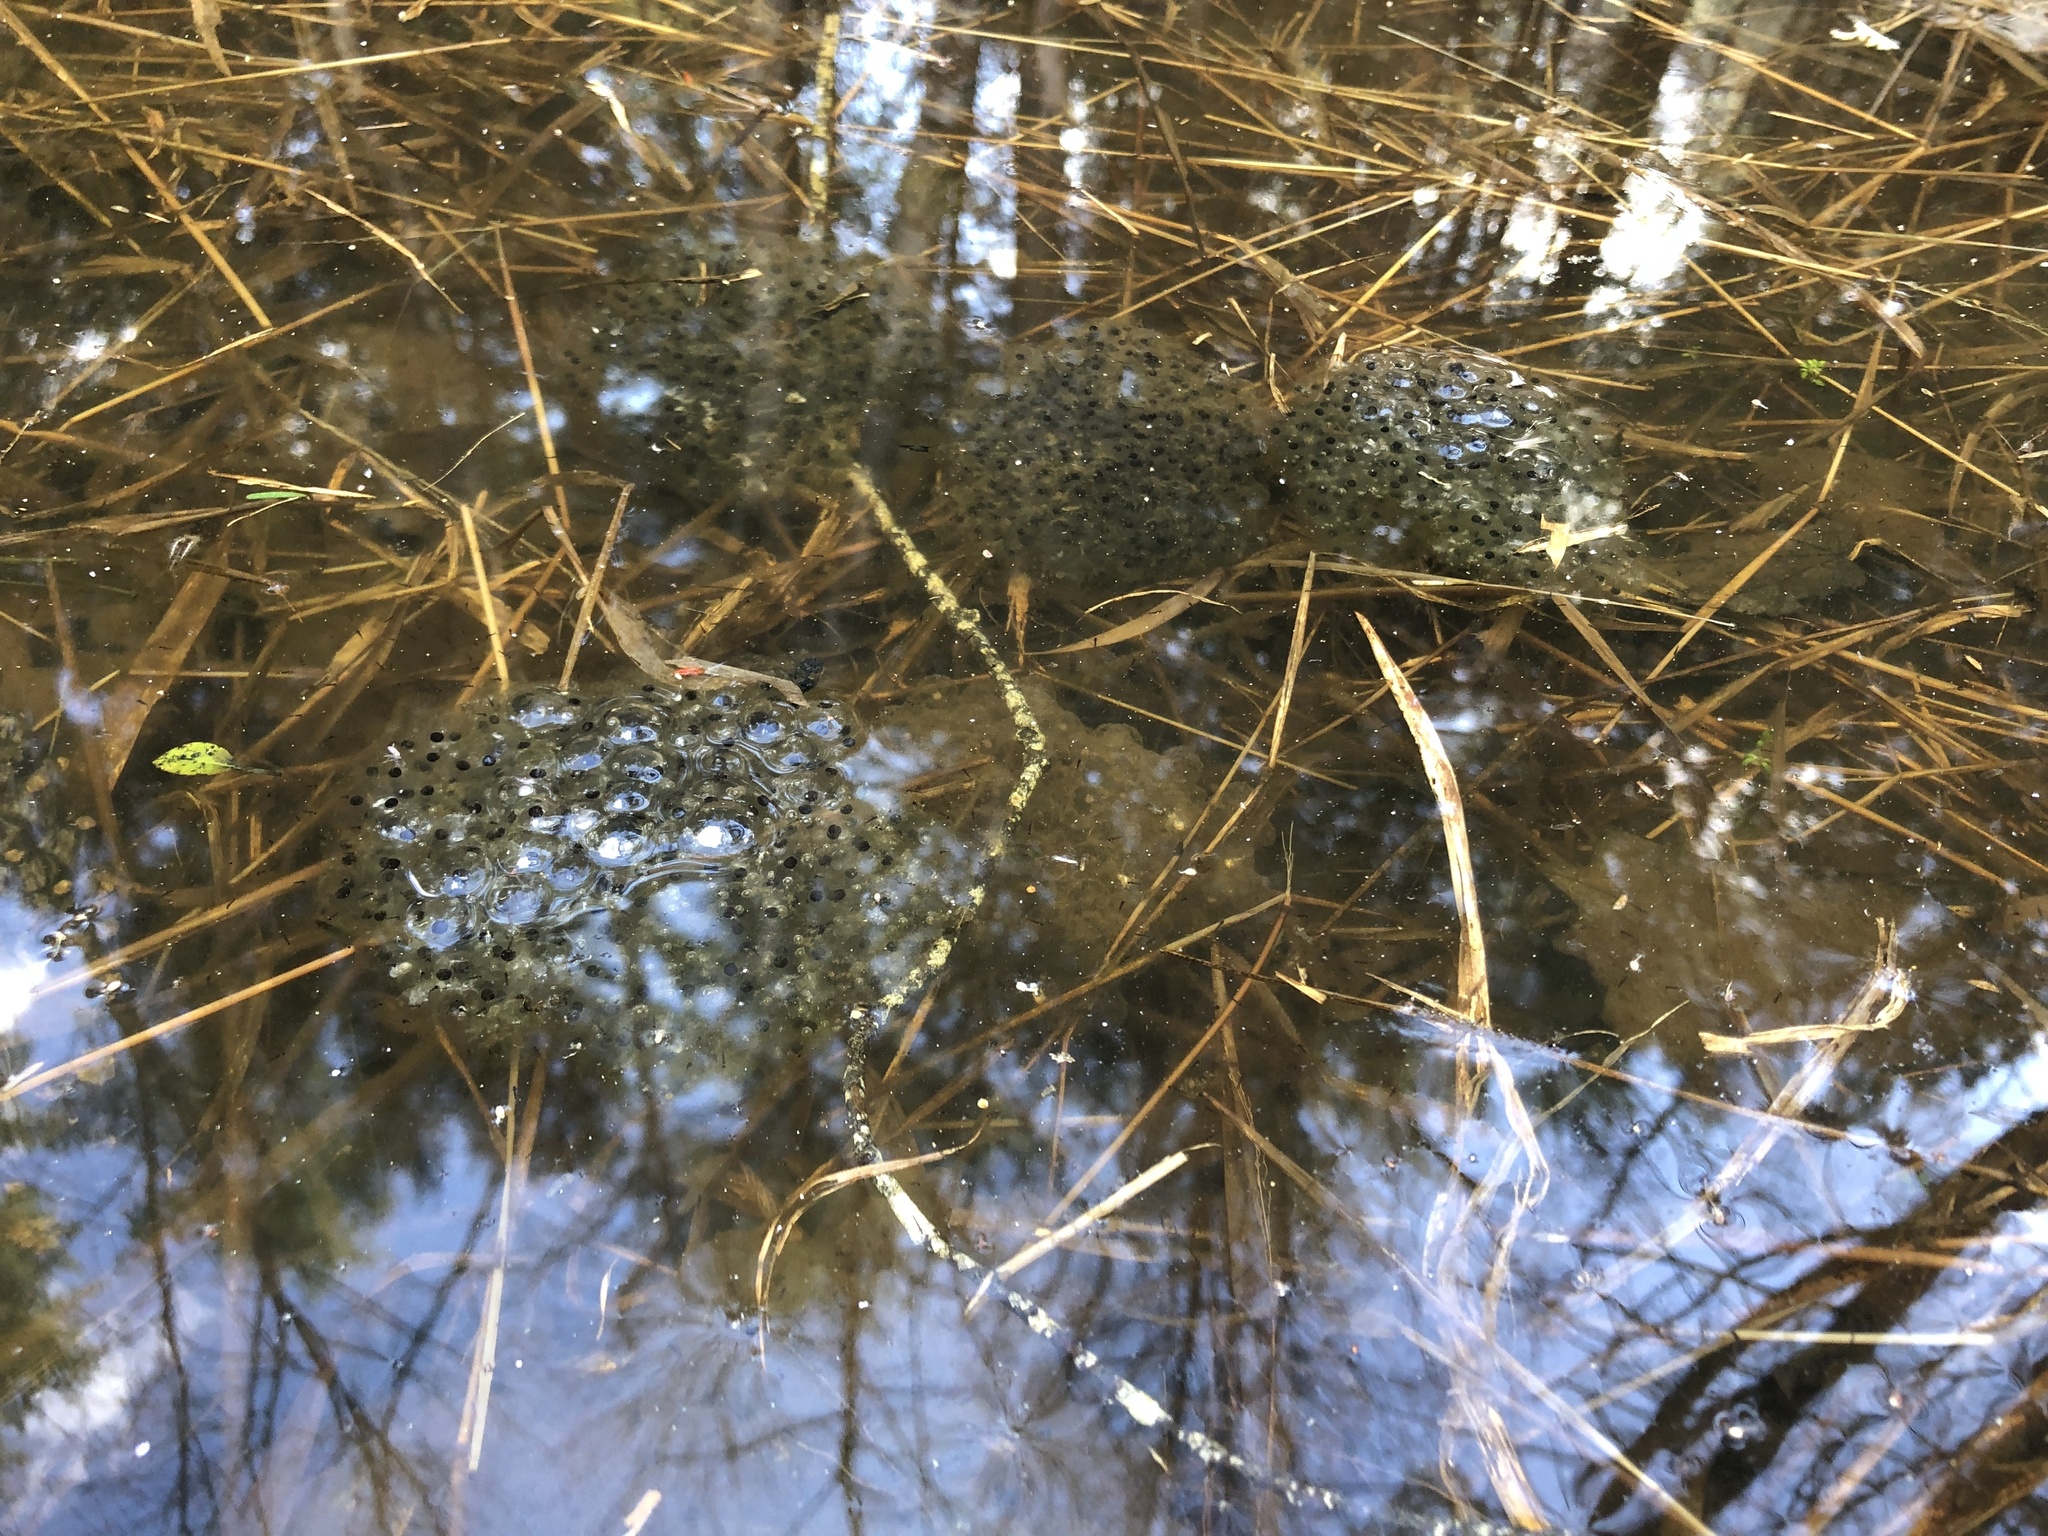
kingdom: Animalia
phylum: Chordata
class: Amphibia
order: Anura
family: Ranidae
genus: Lithobates
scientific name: Lithobates sylvaticus
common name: Wood frog
